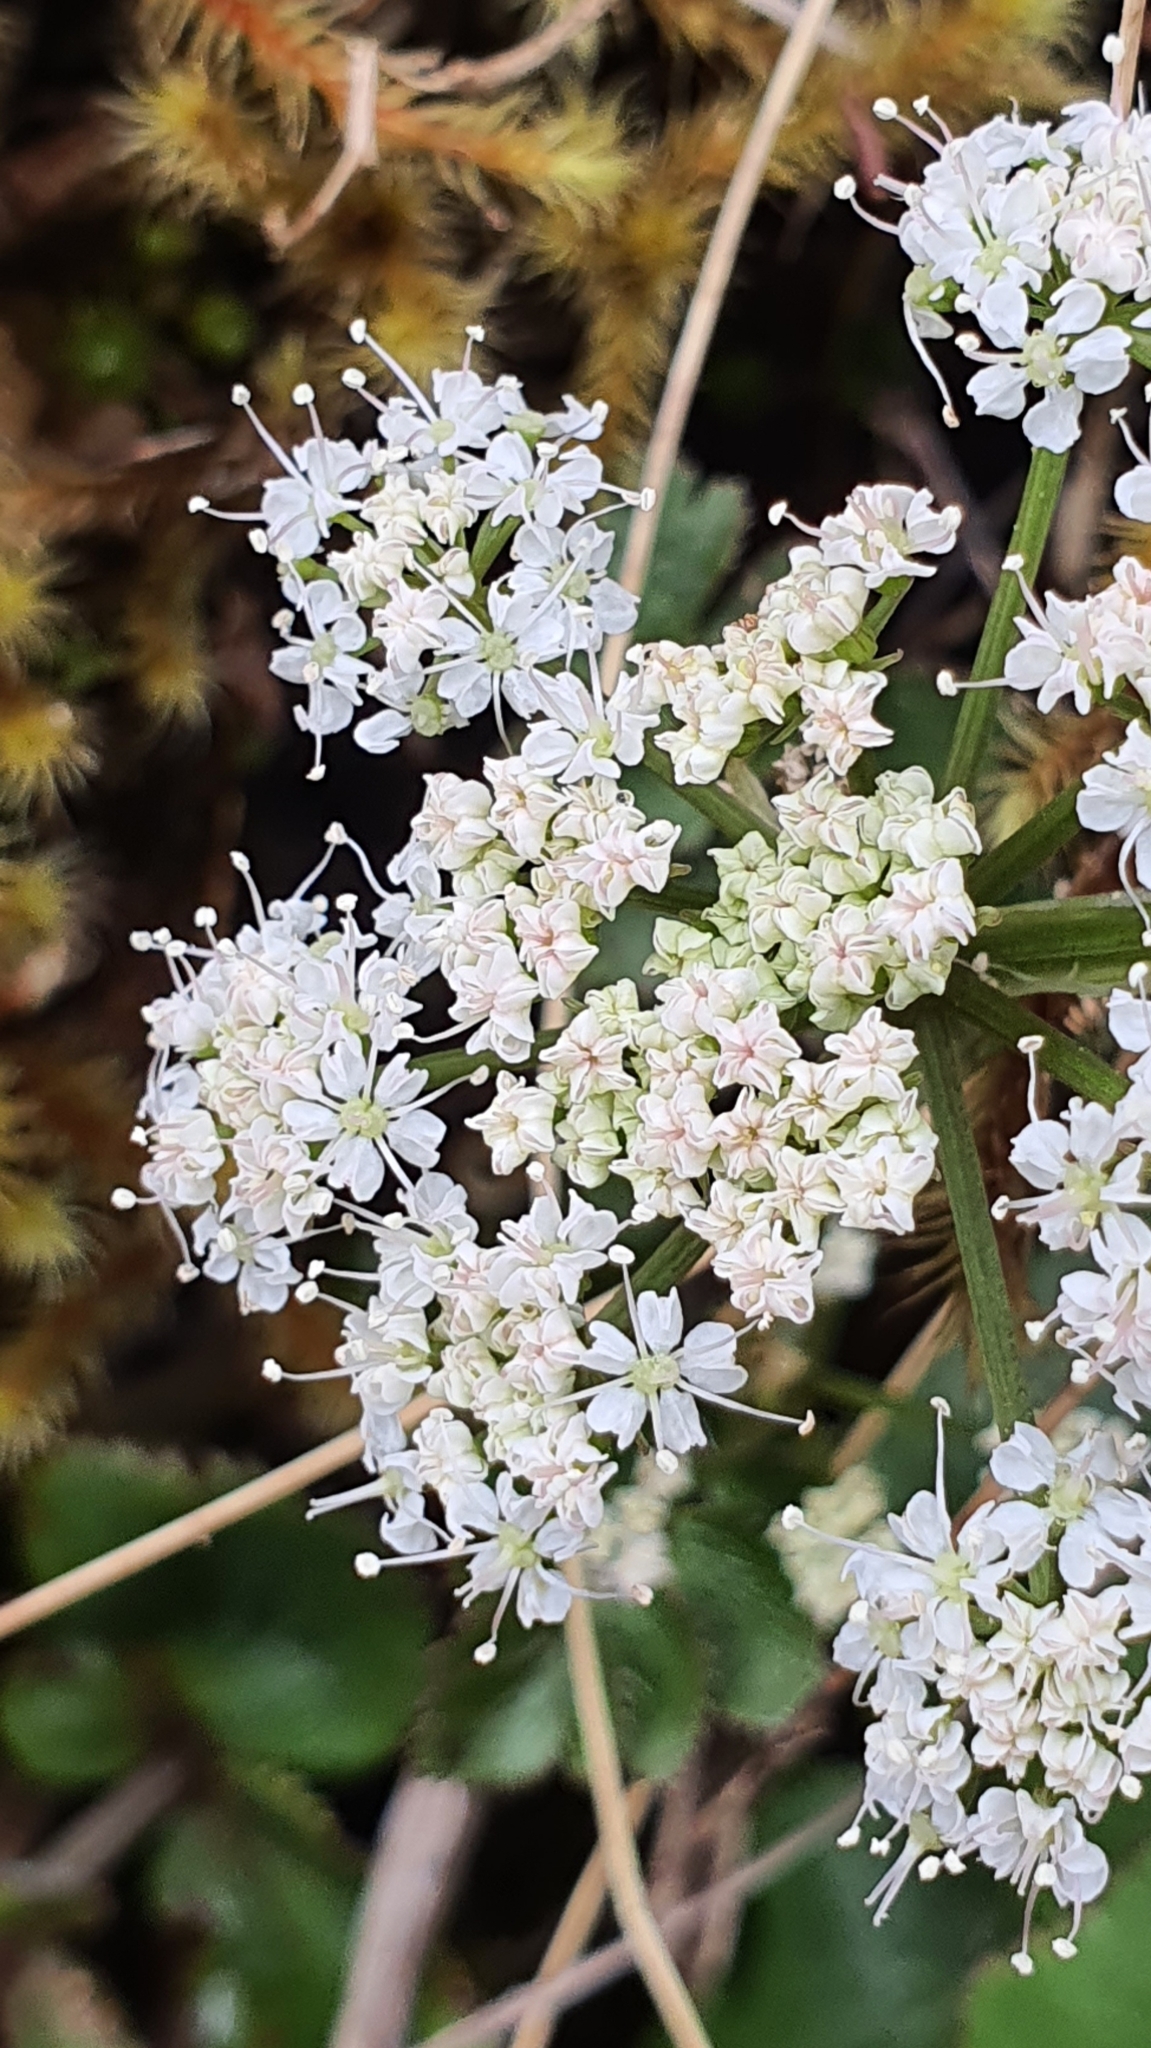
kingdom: Plantae
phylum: Tracheophyta
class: Magnoliopsida
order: Apiales
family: Apiaceae
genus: Gingidia
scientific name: Gingidia montana
